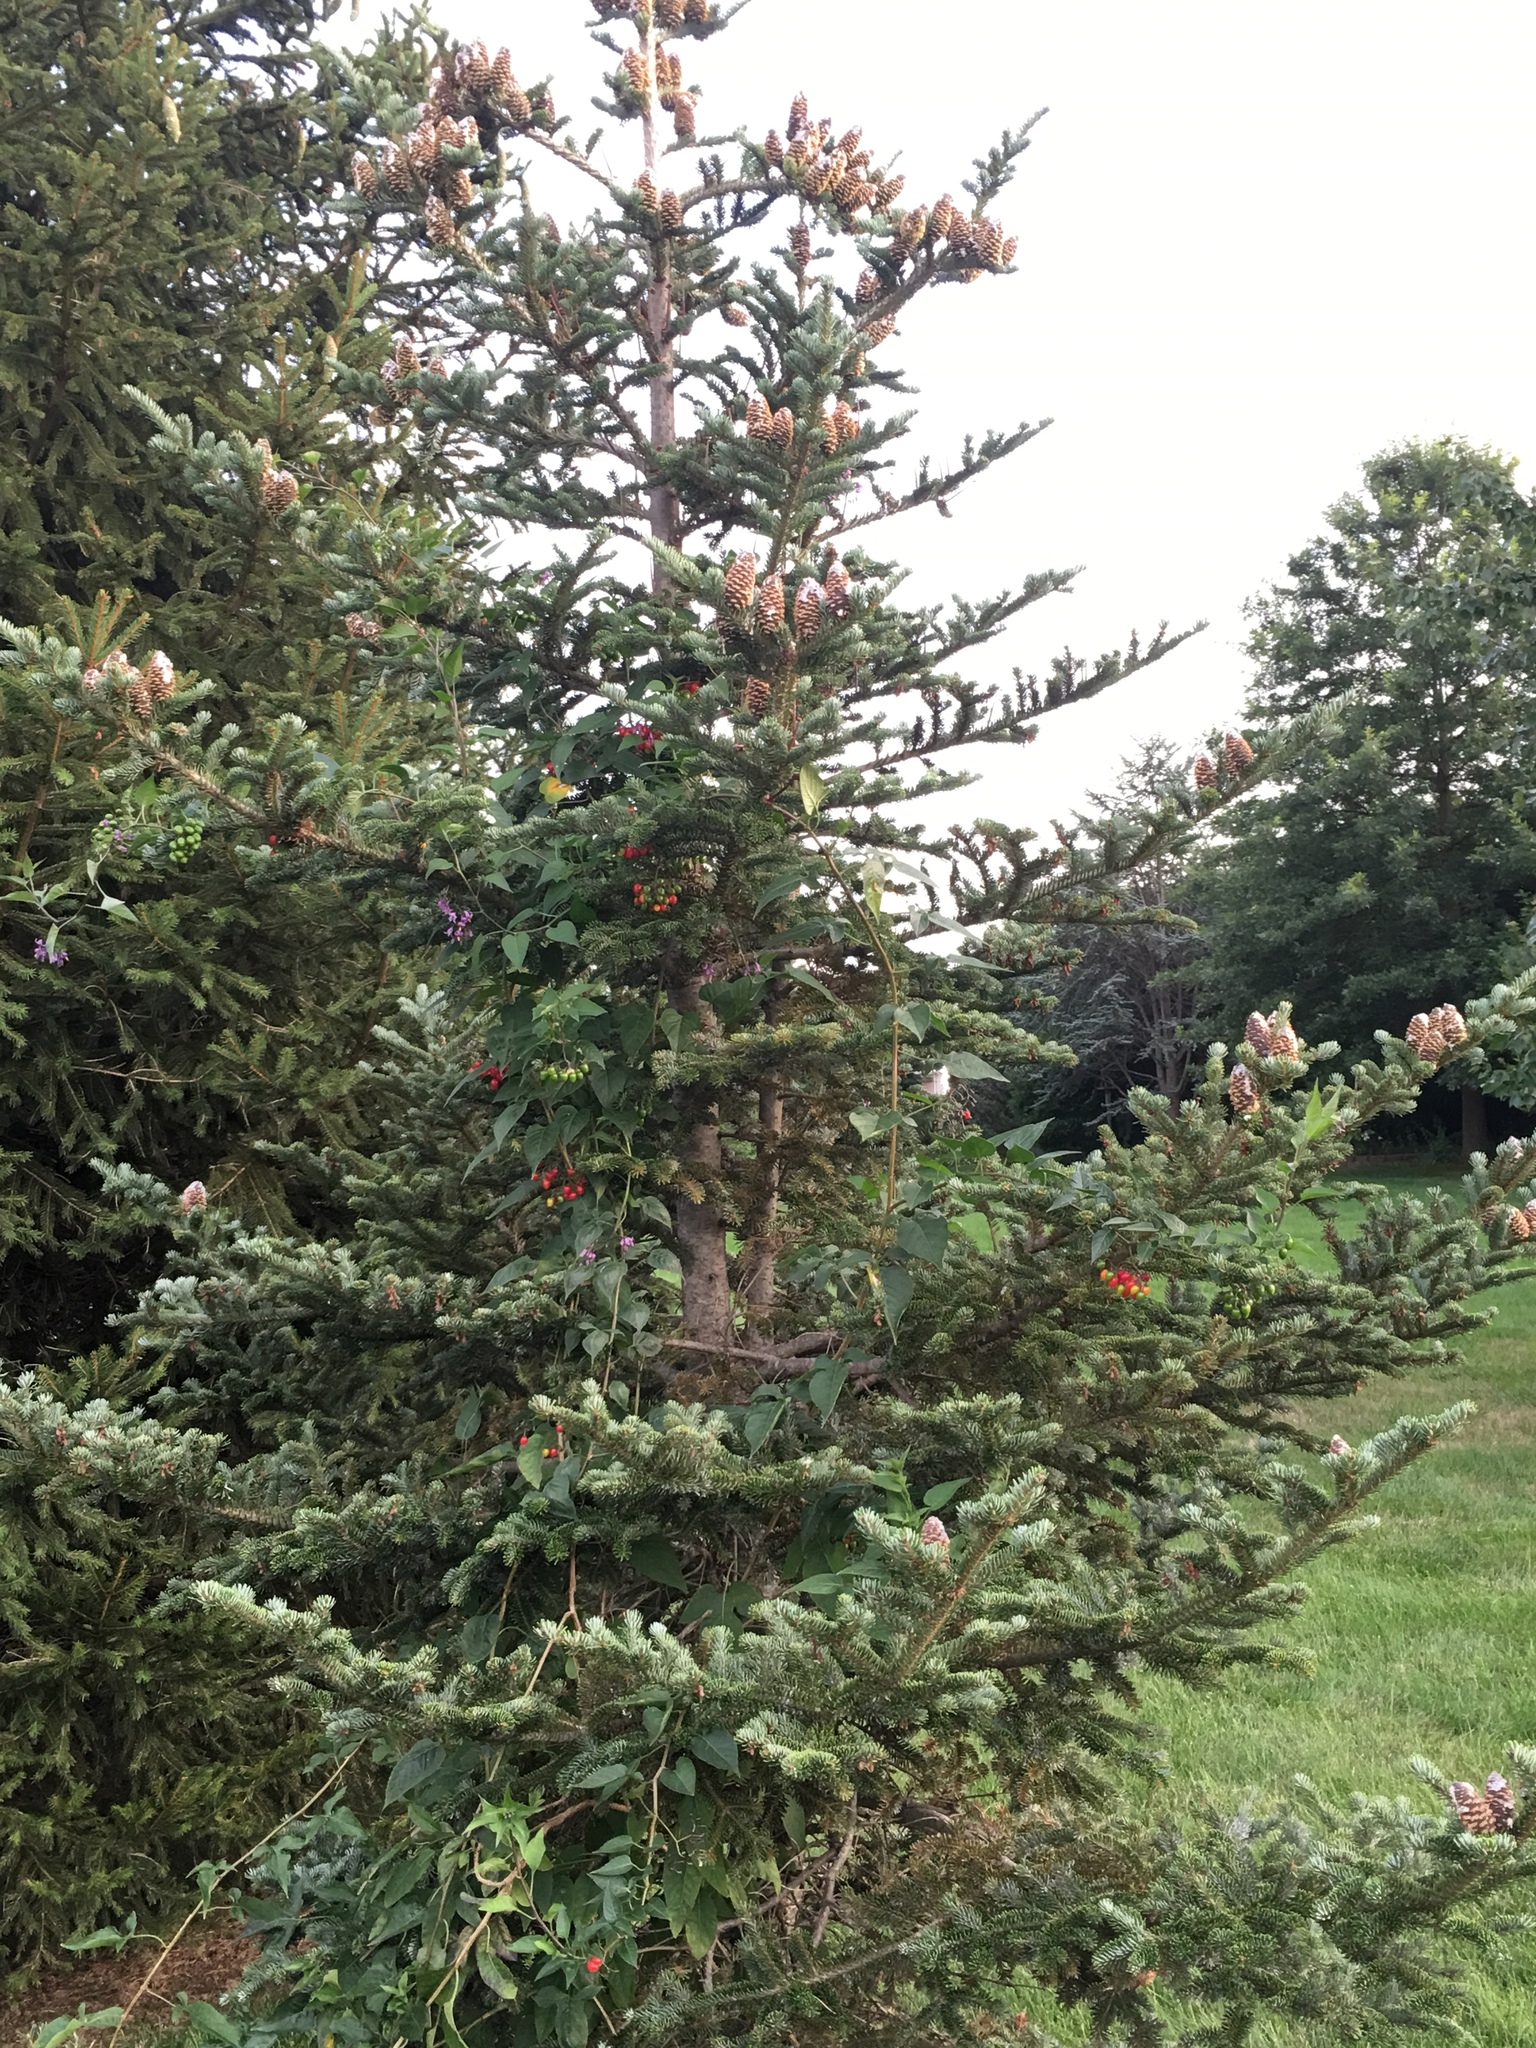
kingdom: Plantae
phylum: Tracheophyta
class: Magnoliopsida
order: Solanales
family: Solanaceae
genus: Solanum
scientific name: Solanum dulcamara
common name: Climbing nightshade
